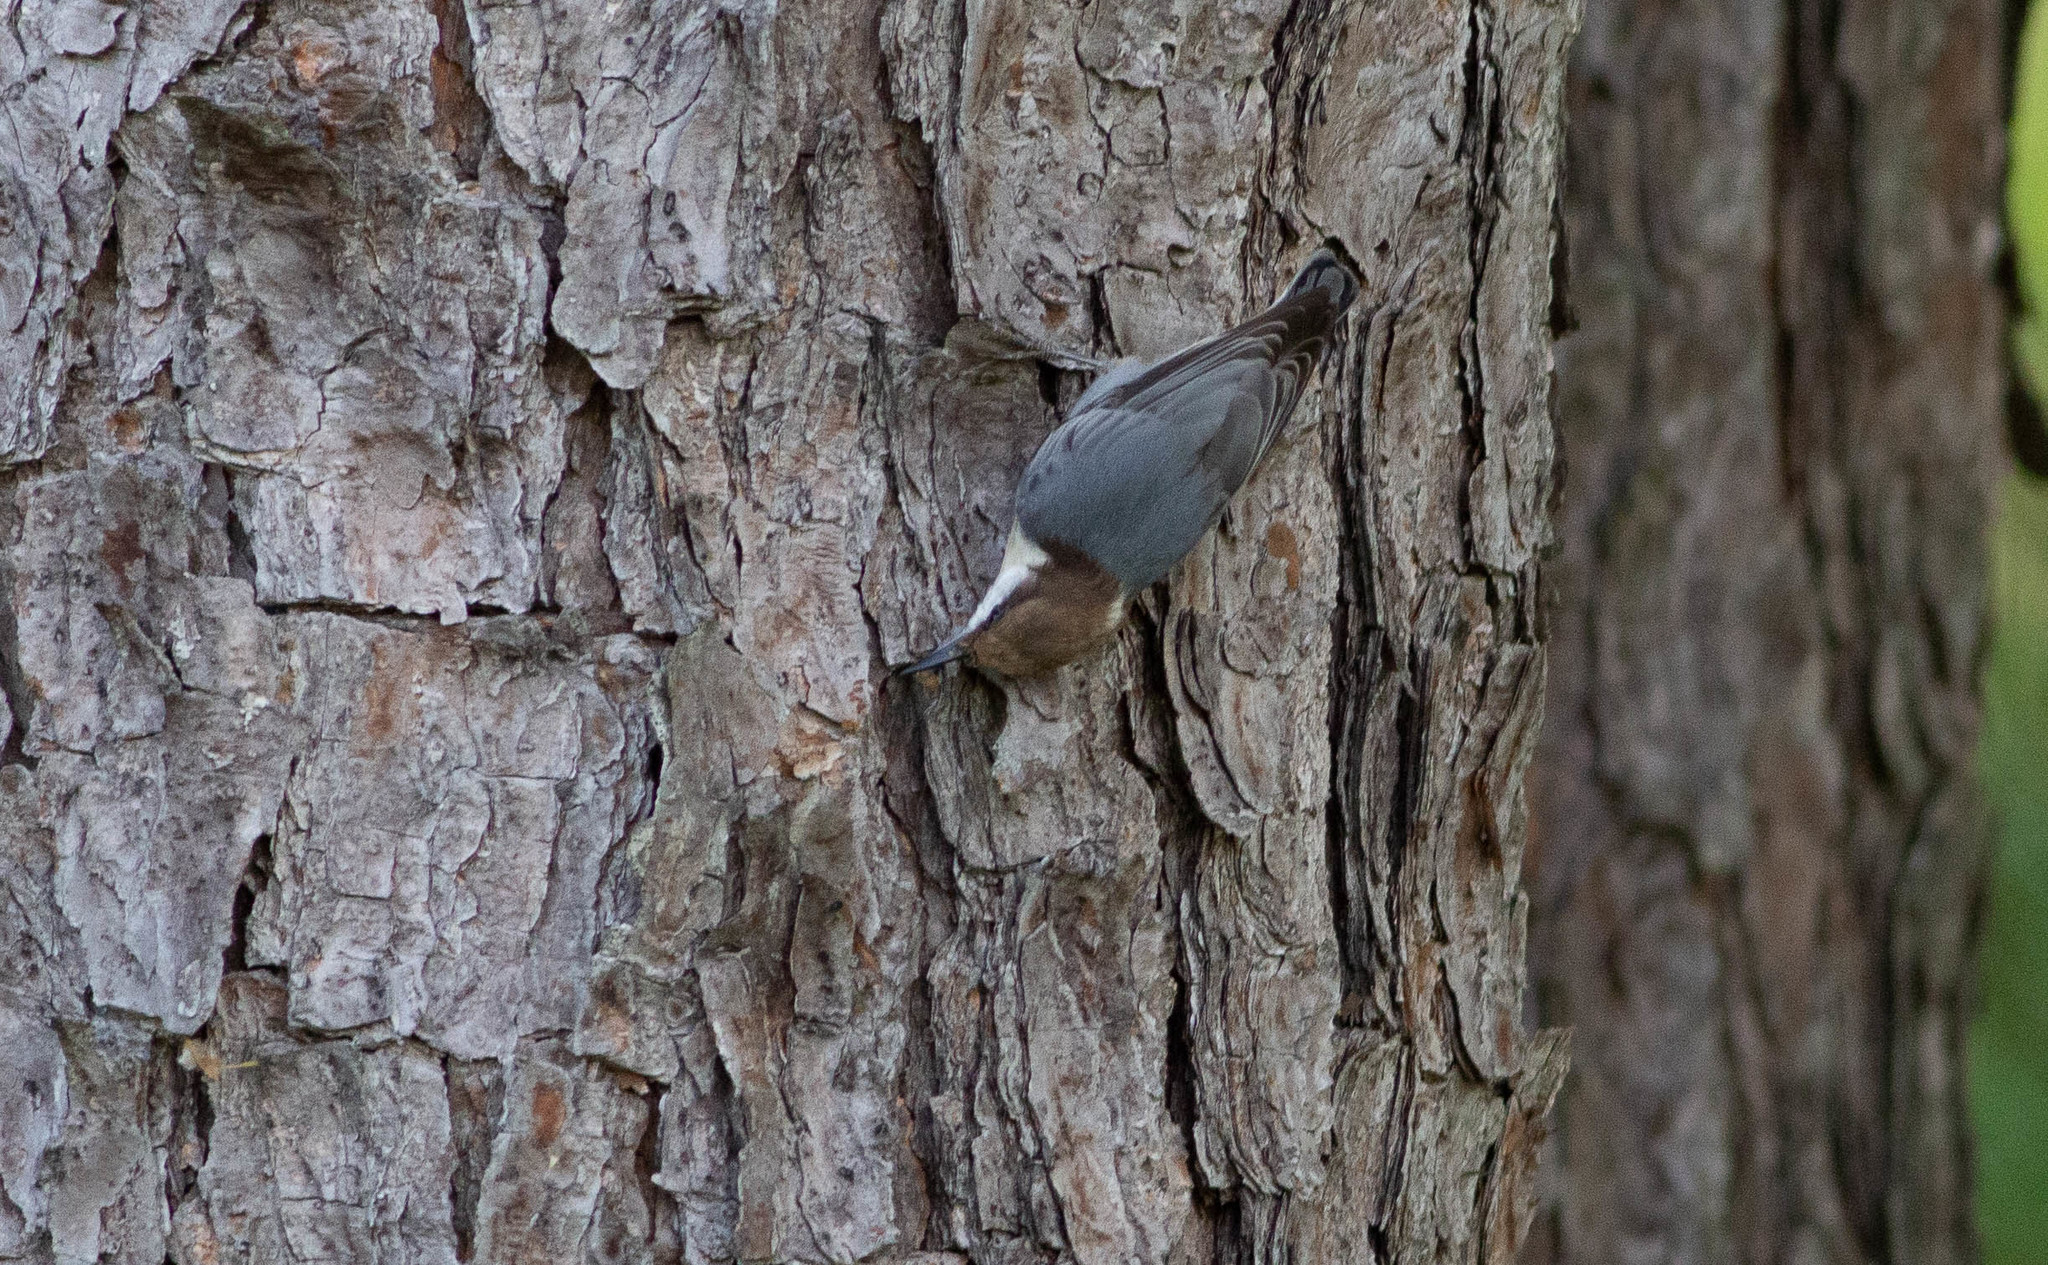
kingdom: Animalia
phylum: Chordata
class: Aves
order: Passeriformes
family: Sittidae
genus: Sitta
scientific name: Sitta pusilla
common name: Brown-headed nuthatch
